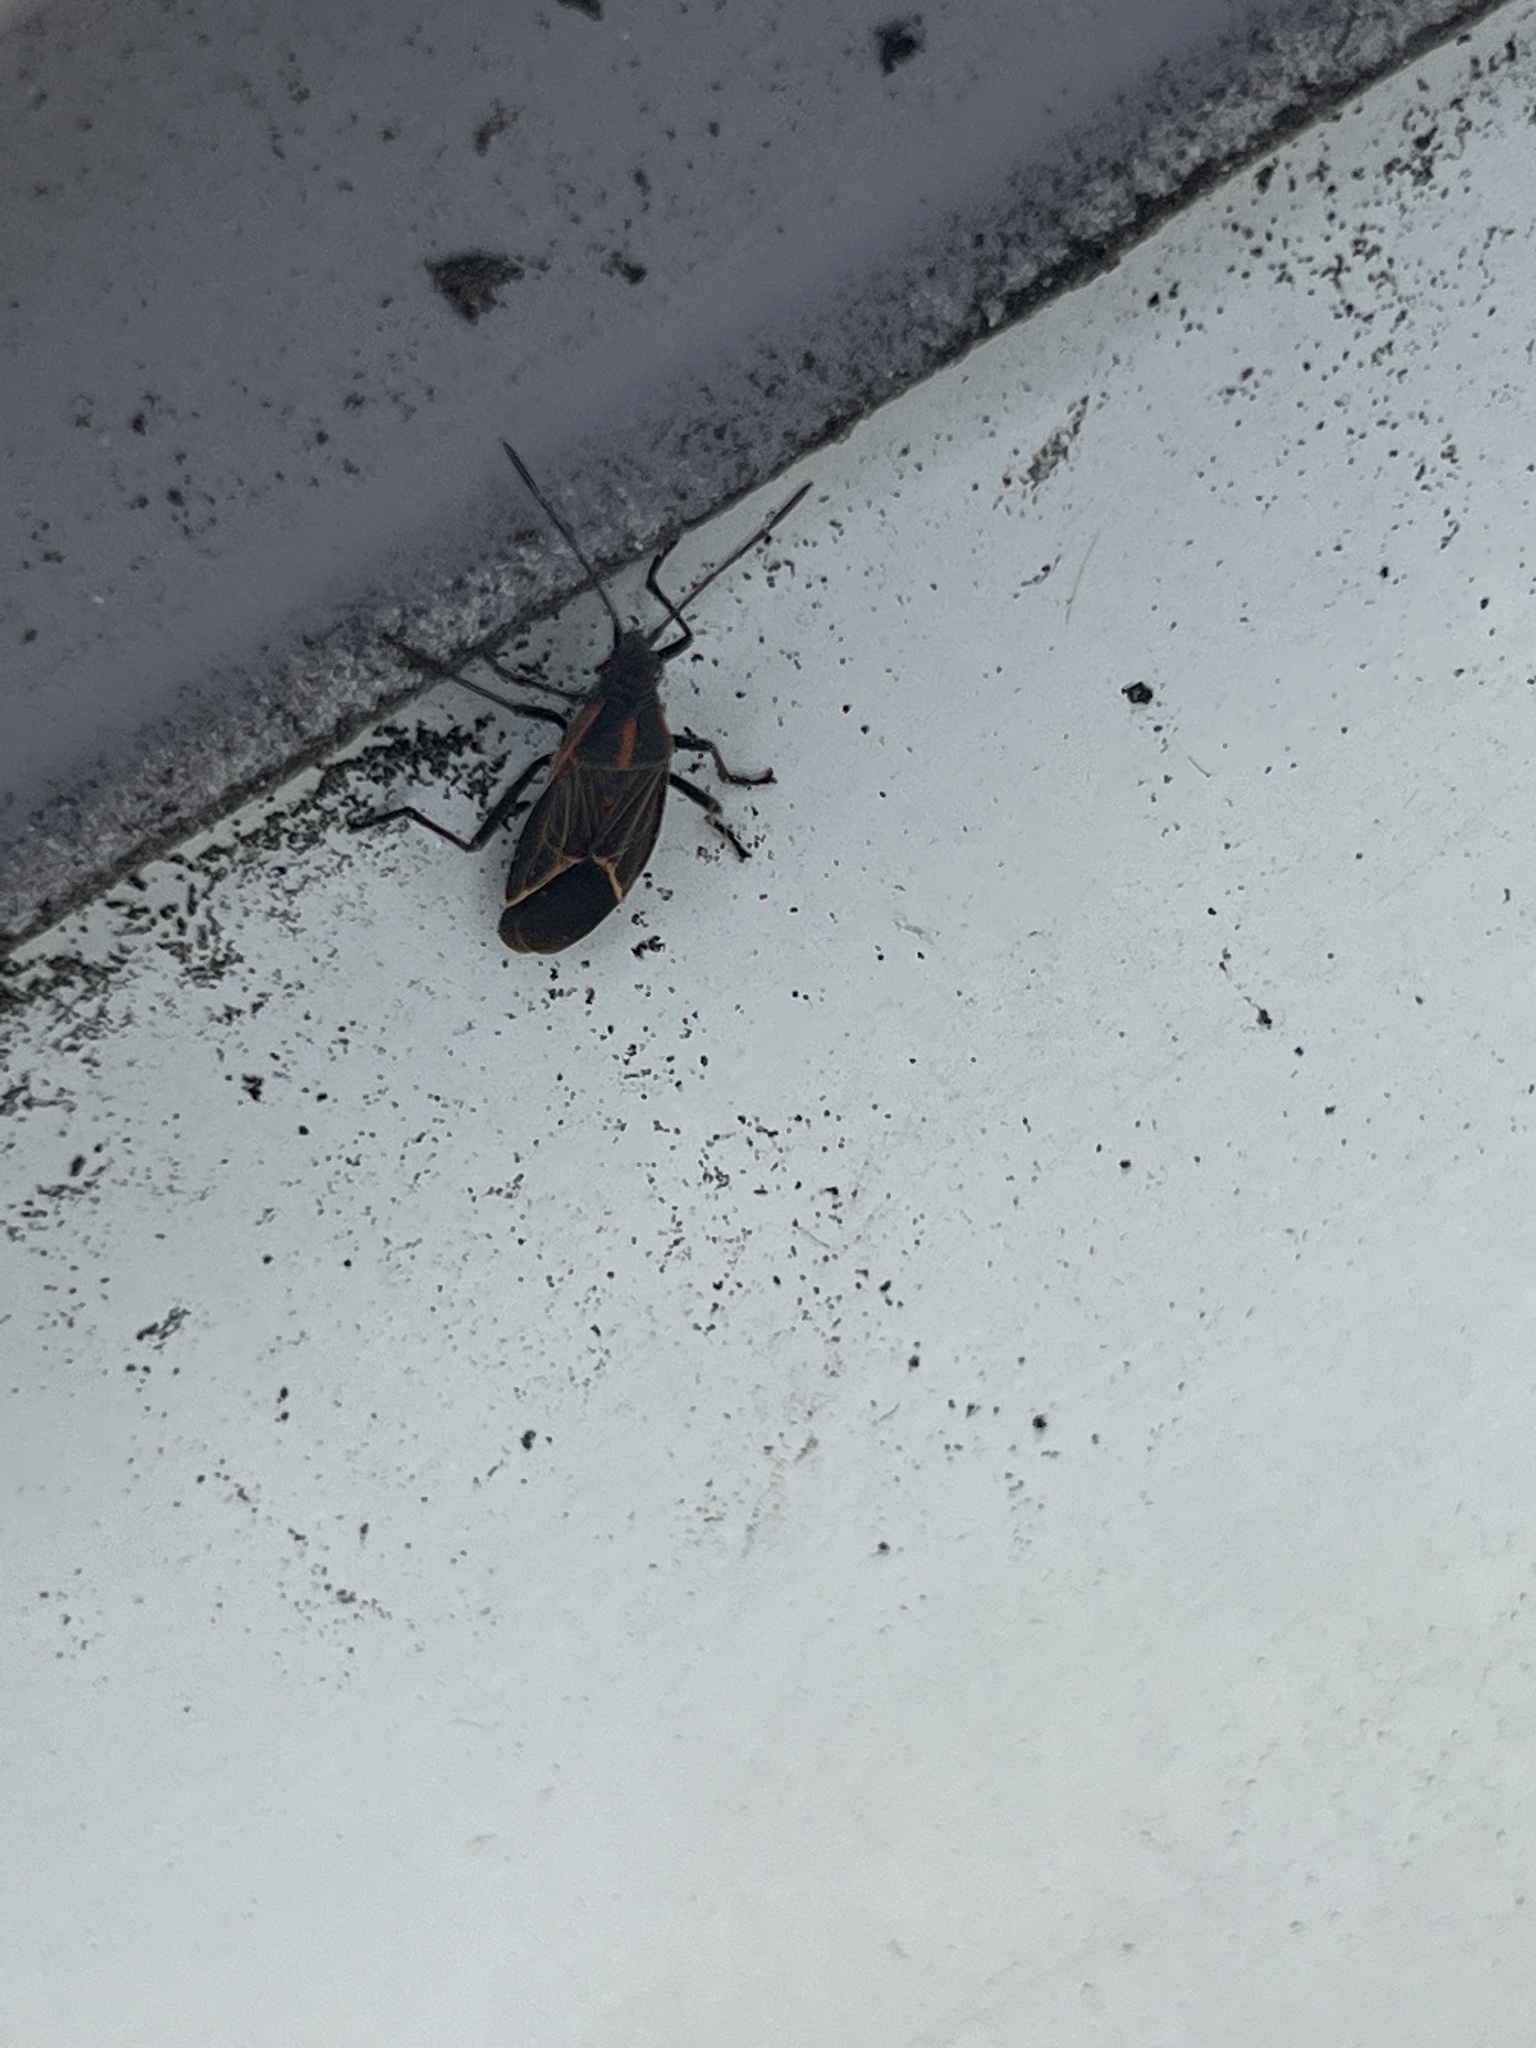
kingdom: Animalia
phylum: Arthropoda
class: Insecta
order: Hemiptera
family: Rhopalidae
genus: Boisea
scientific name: Boisea rubrolineata
